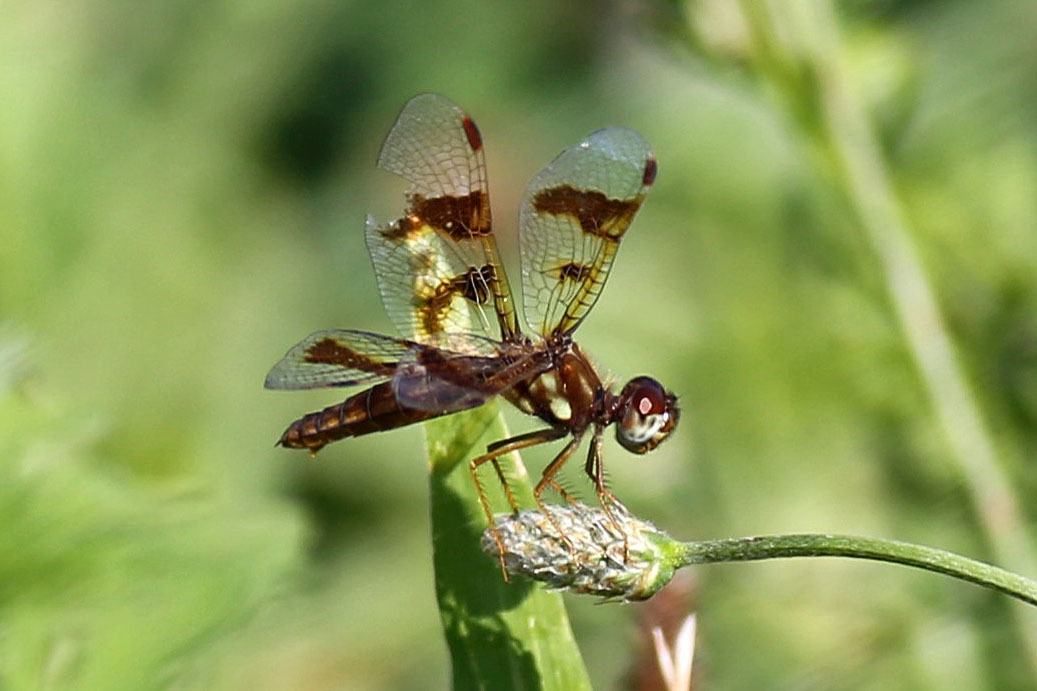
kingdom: Animalia
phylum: Arthropoda
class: Insecta
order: Odonata
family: Libellulidae
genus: Perithemis
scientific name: Perithemis tenera
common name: Eastern amberwing
